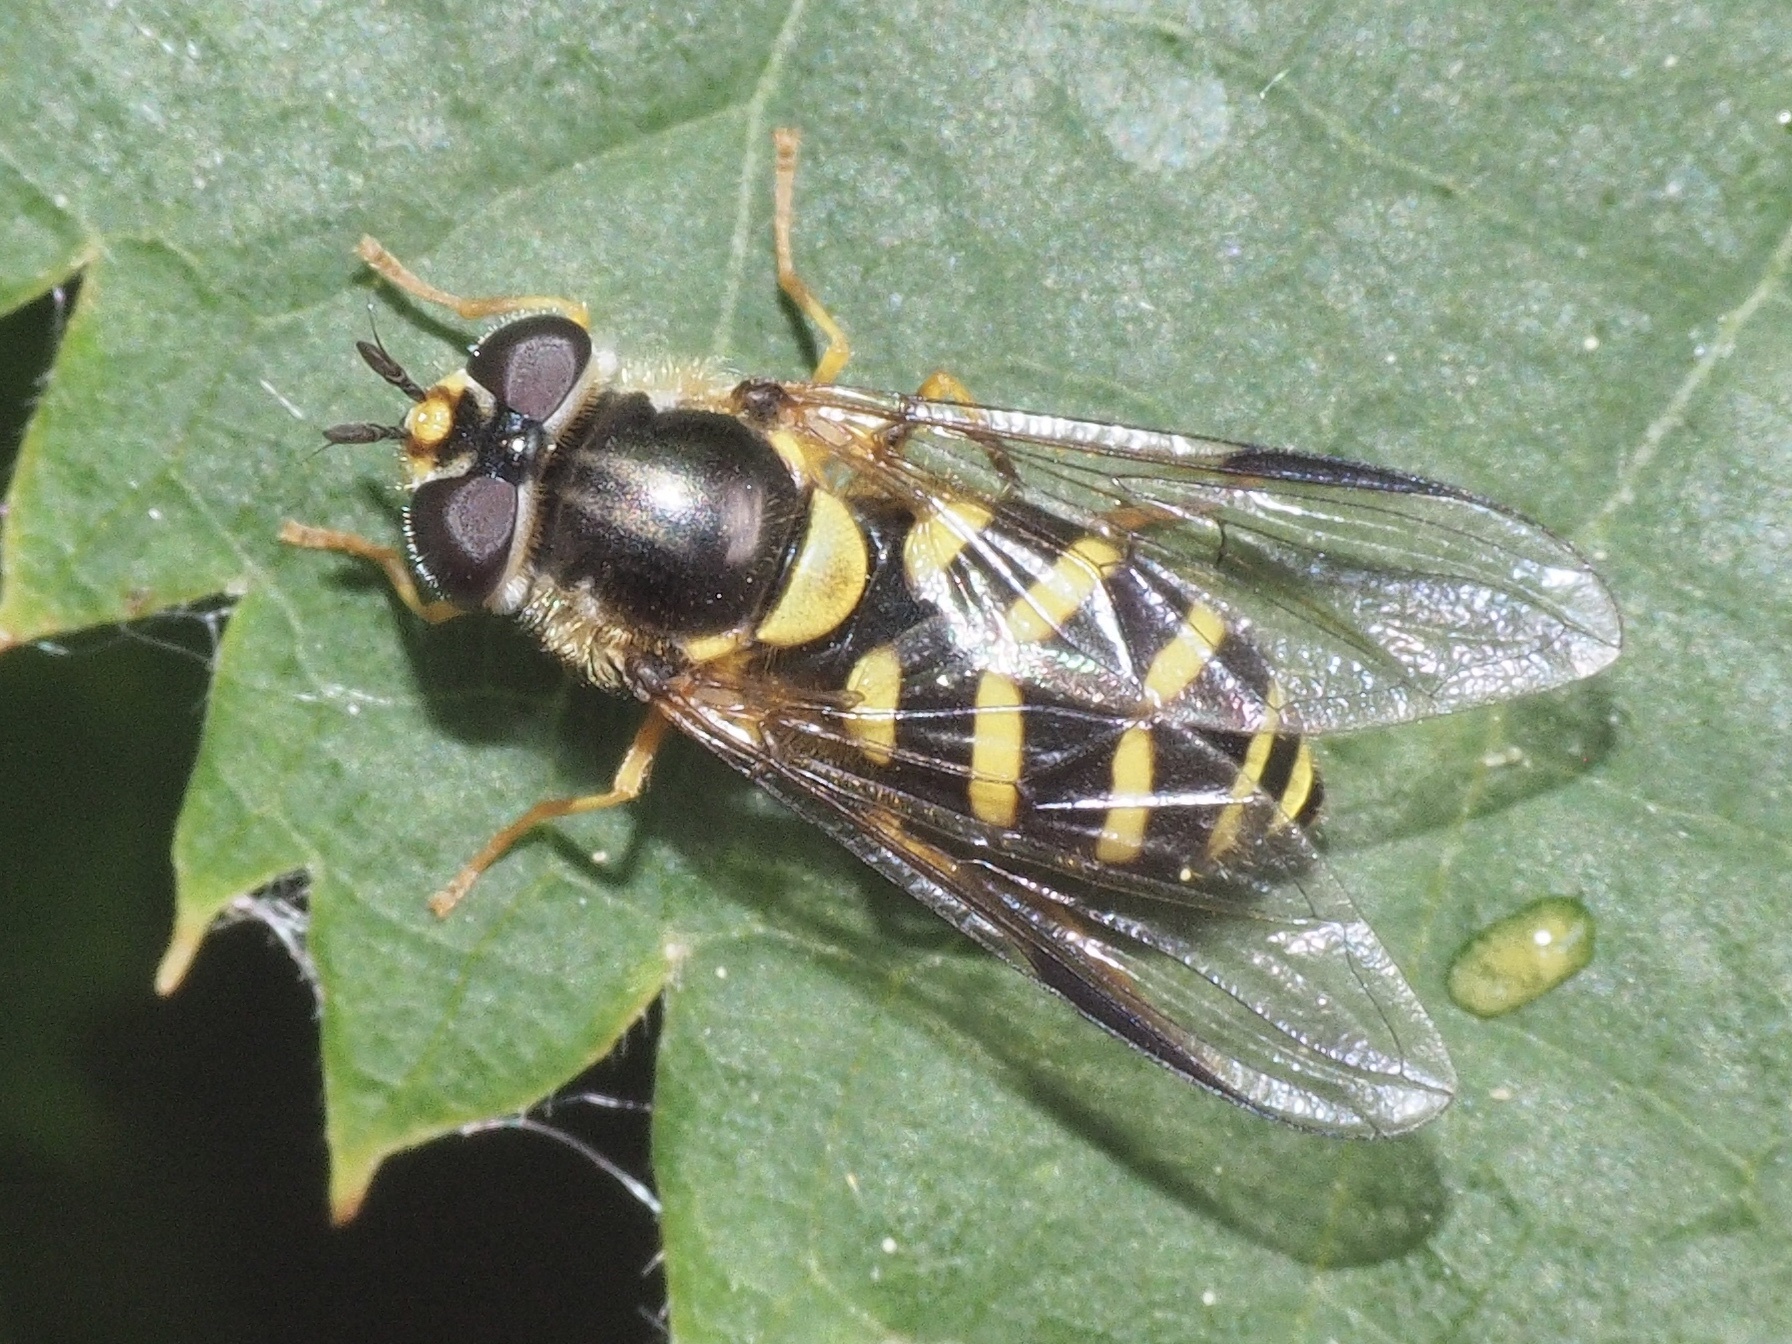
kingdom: Animalia
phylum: Arthropoda
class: Insecta
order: Diptera
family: Syrphidae
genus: Dasysyrphus
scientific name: Dasysyrphus albostriatus
